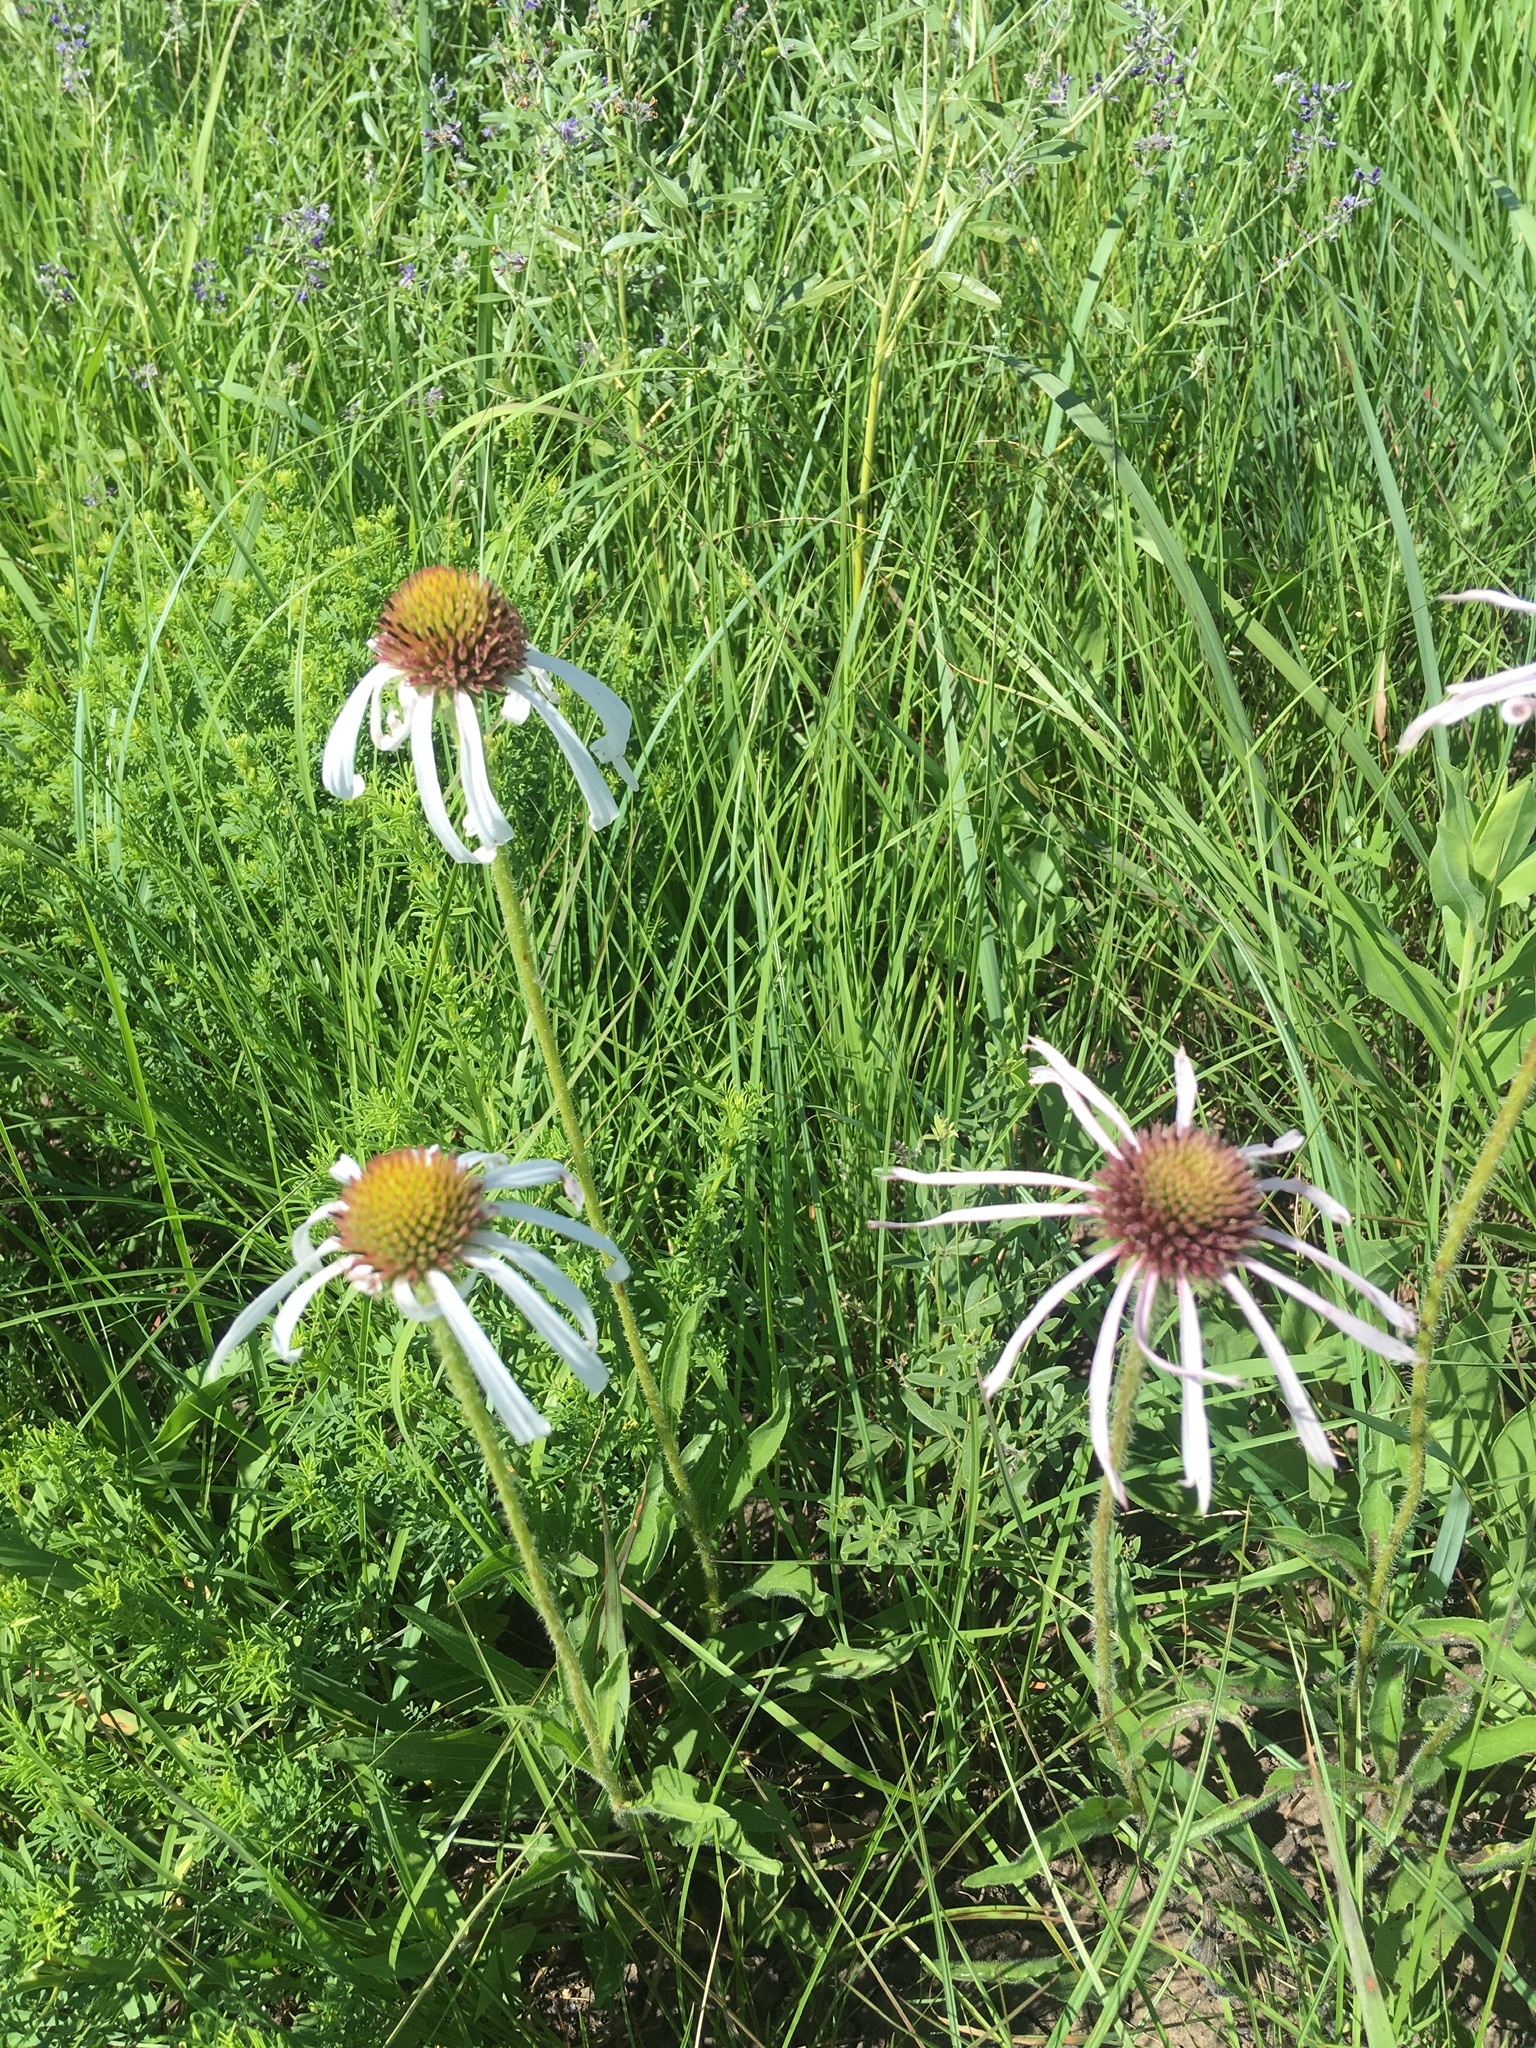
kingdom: Plantae
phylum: Tracheophyta
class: Magnoliopsida
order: Asterales
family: Asteraceae
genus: Echinacea
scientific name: Echinacea pallida
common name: Pale echinacea
